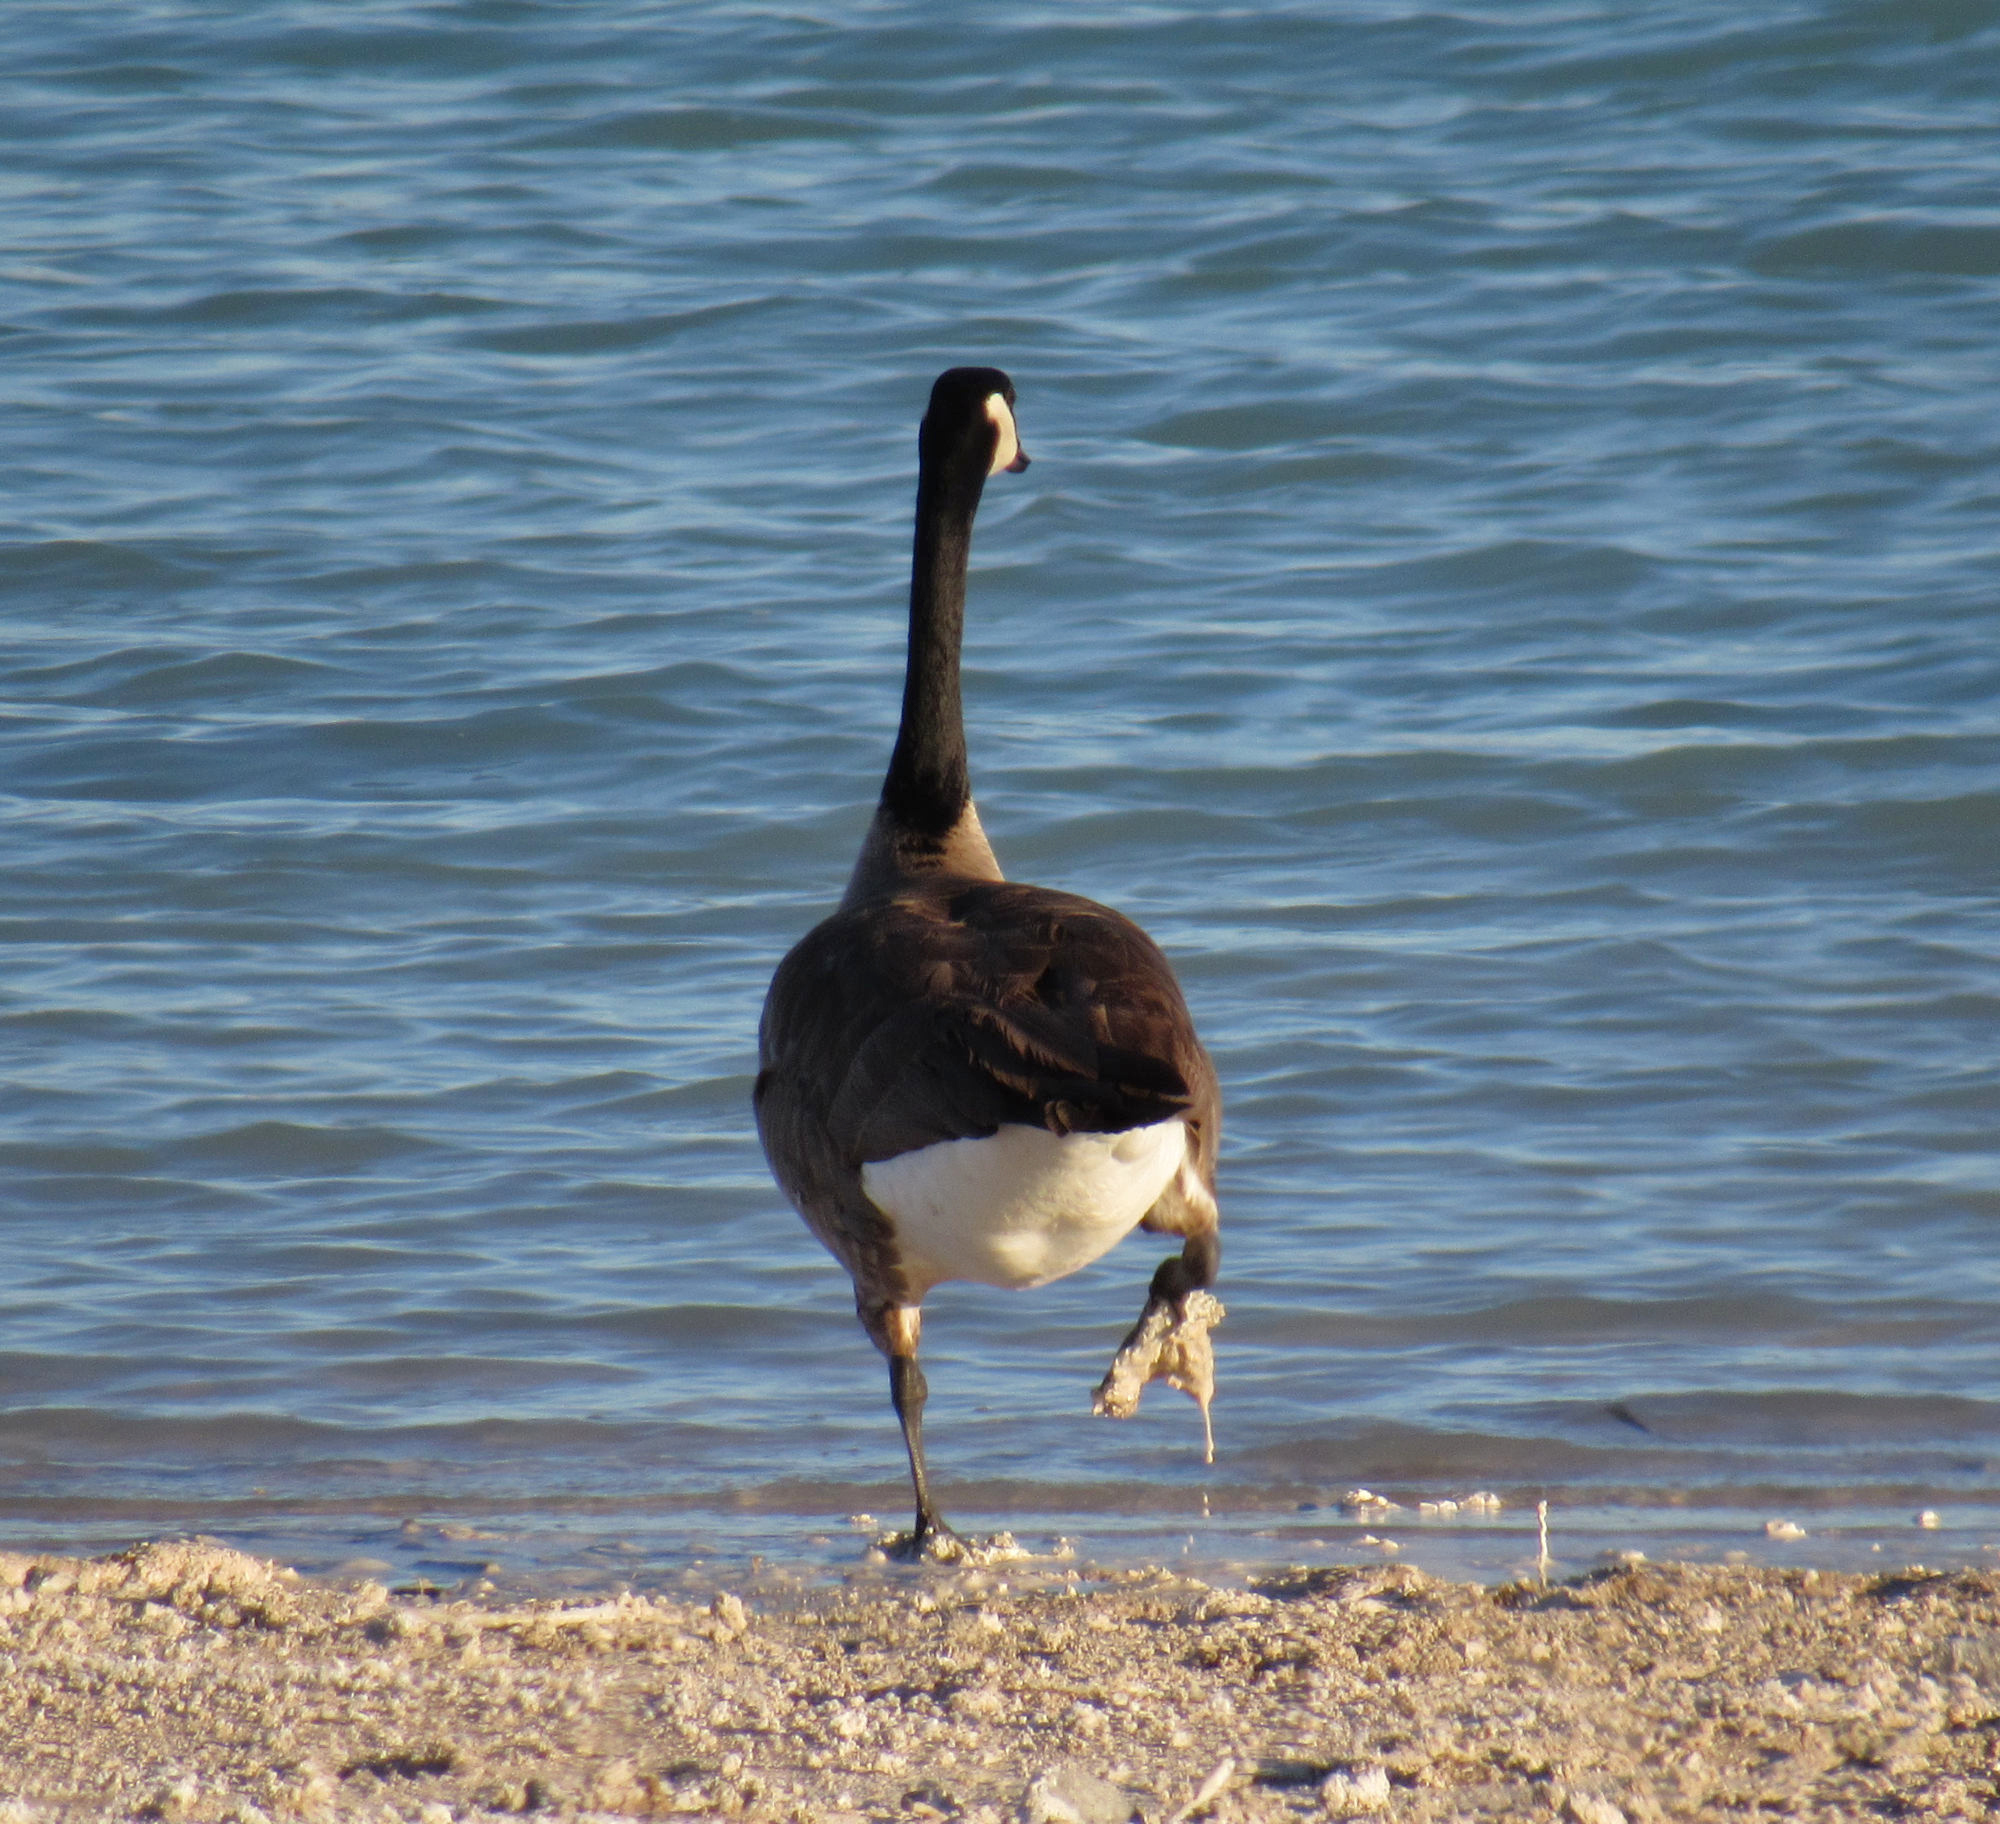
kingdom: Animalia
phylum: Chordata
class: Aves
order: Anseriformes
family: Anatidae
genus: Branta
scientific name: Branta canadensis
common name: Canada goose
